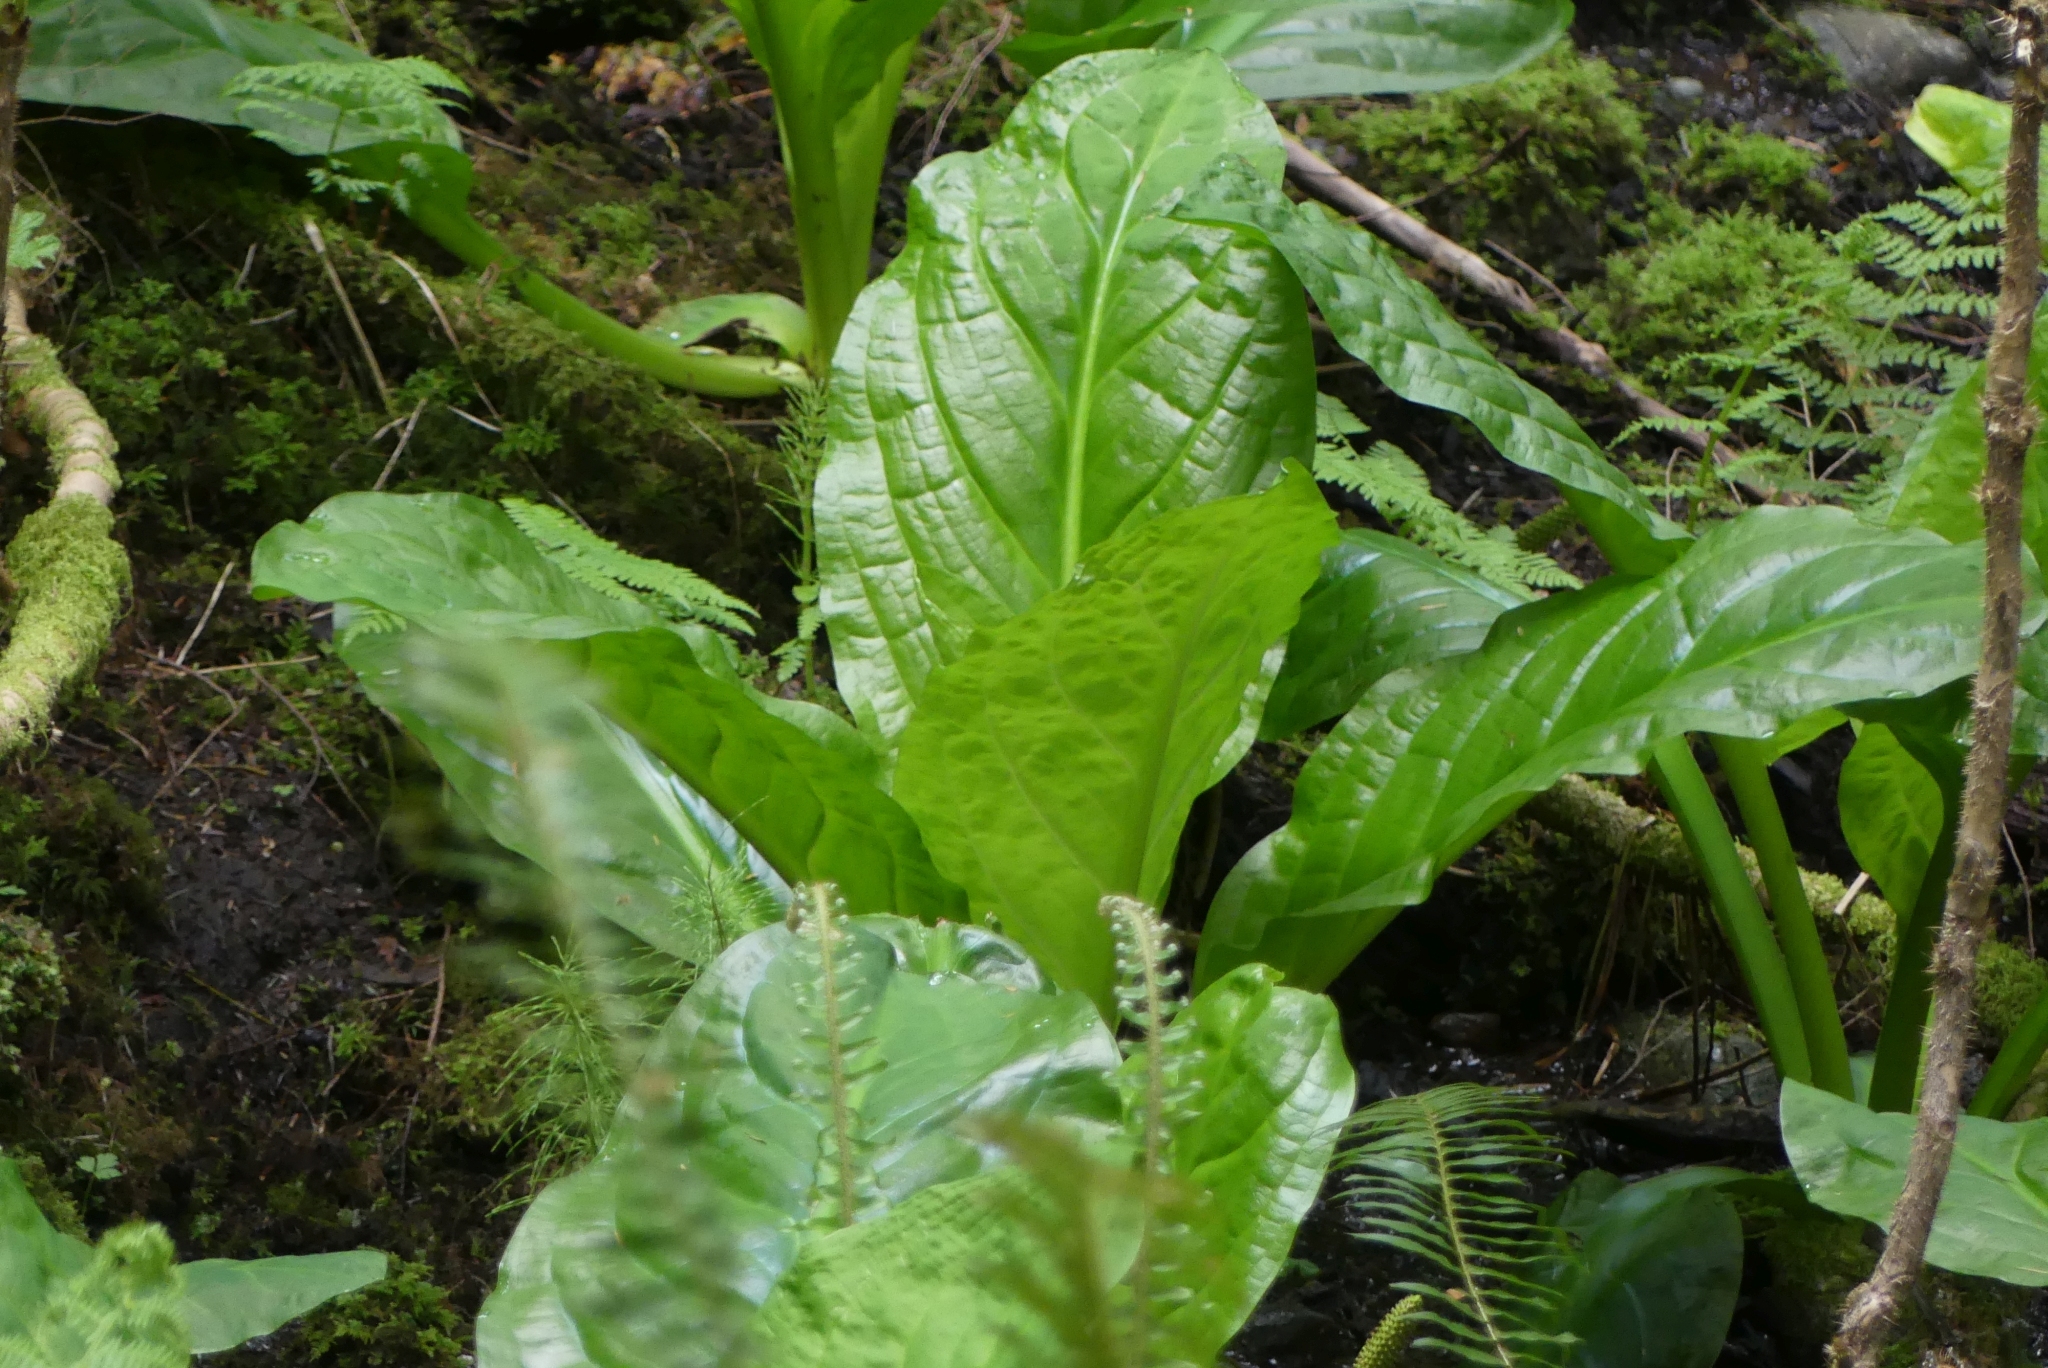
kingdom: Plantae
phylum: Tracheophyta
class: Liliopsida
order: Alismatales
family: Araceae
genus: Lysichiton
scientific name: Lysichiton americanus
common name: American skunk cabbage
